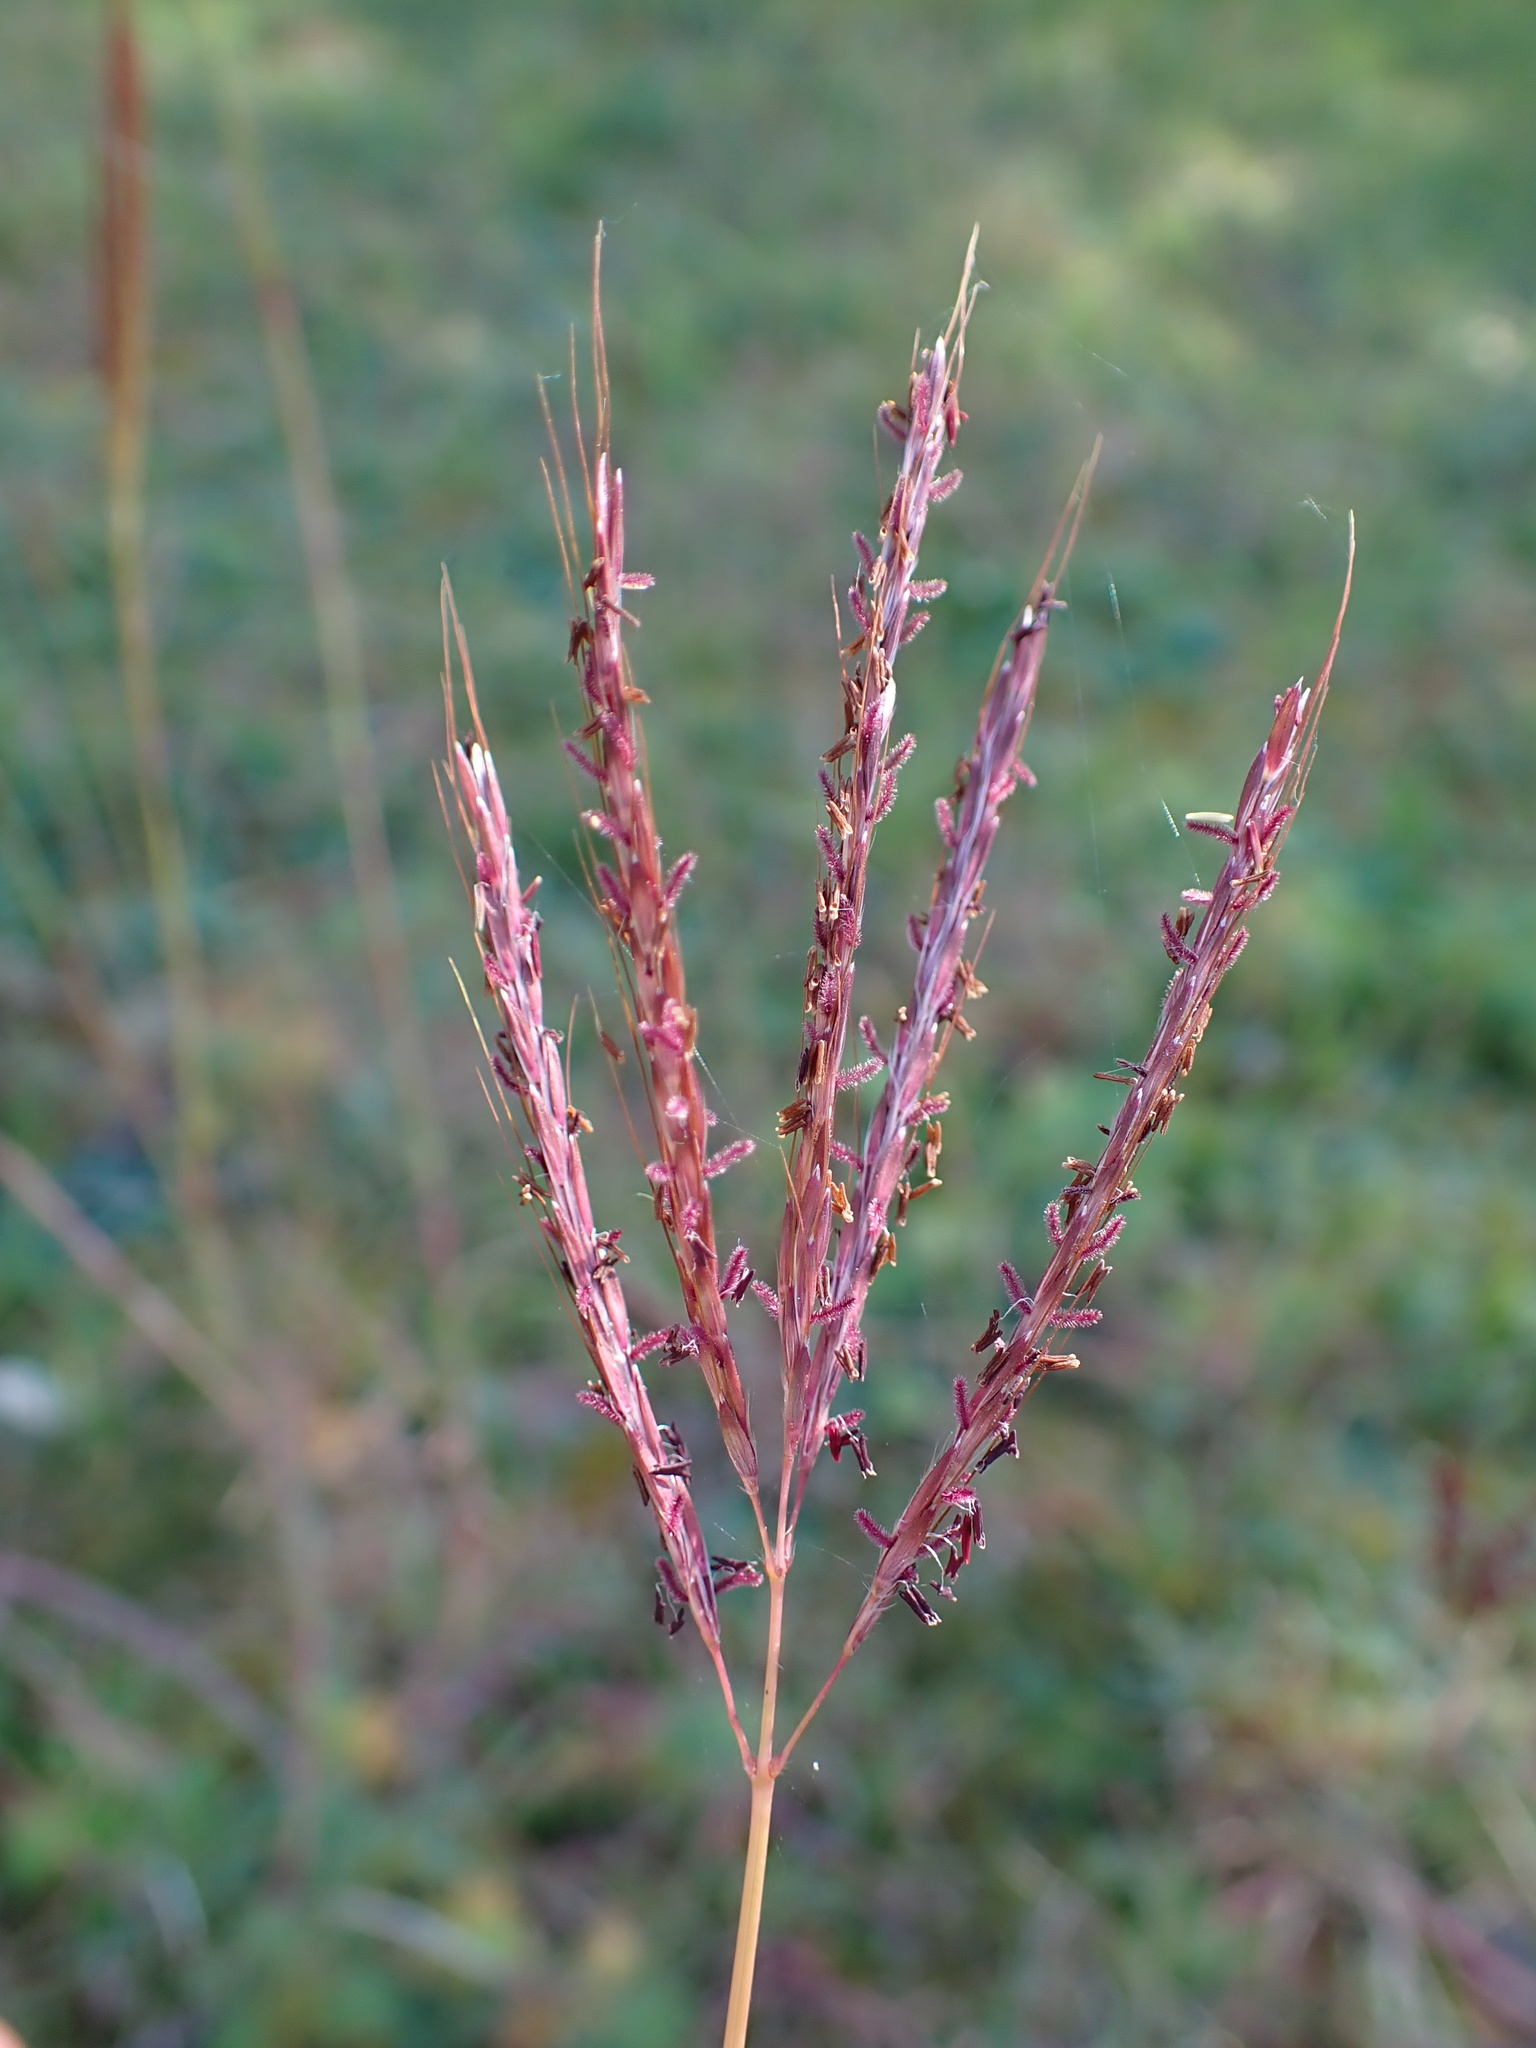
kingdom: Plantae
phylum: Tracheophyta
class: Liliopsida
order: Poales
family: Poaceae
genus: Bothriochloa
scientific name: Bothriochloa ischaemum
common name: Yellow bluestem
